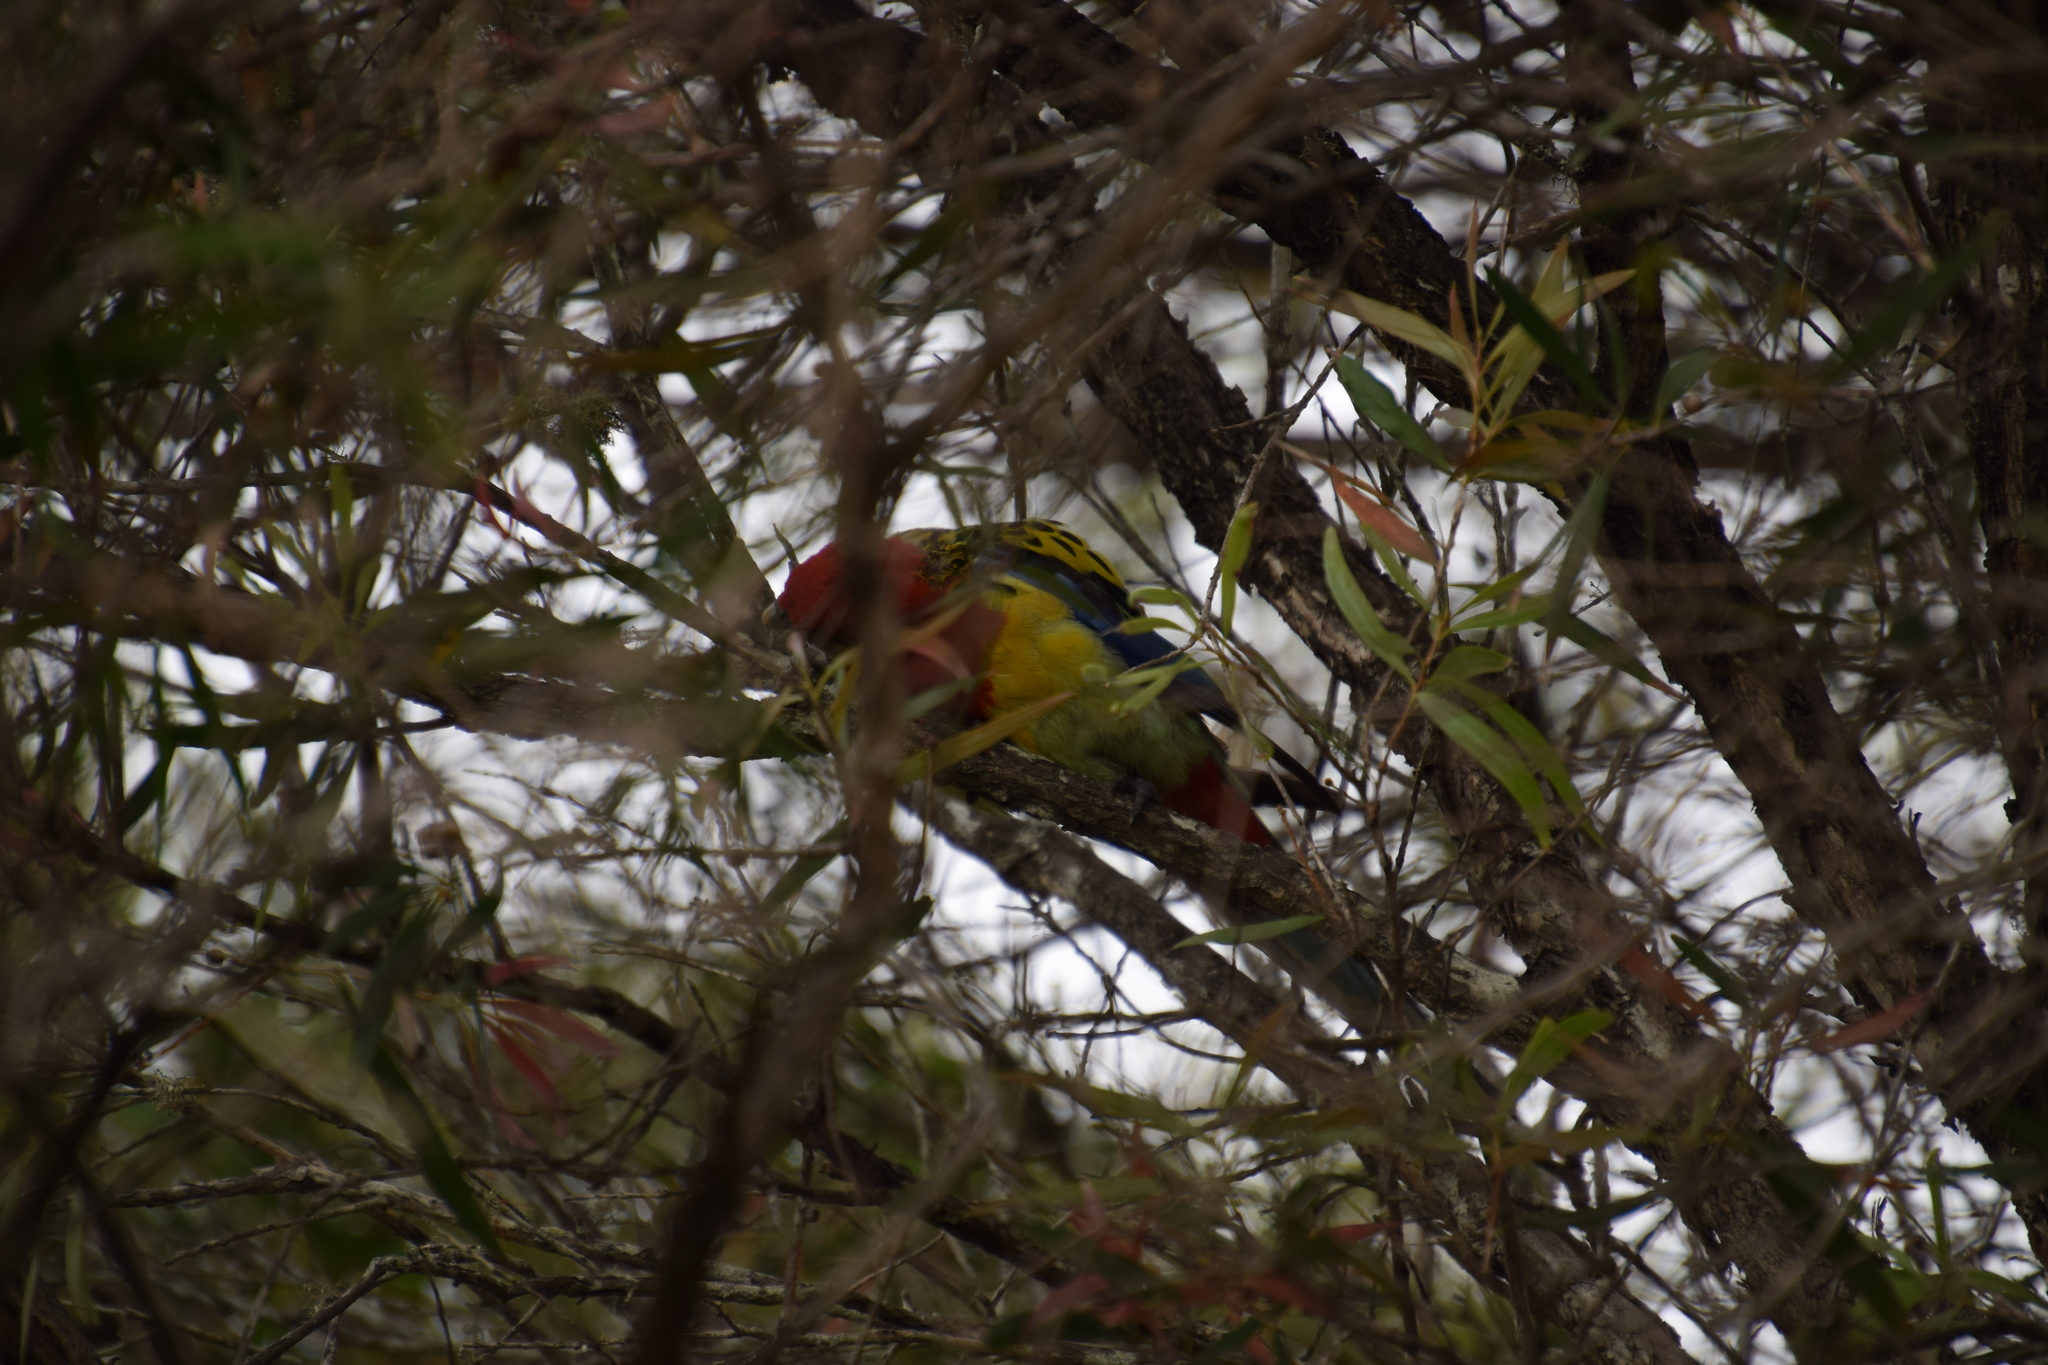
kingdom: Animalia
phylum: Chordata
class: Aves
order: Psittaciformes
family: Psittacidae
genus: Platycercus
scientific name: Platycercus eximius
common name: Eastern rosella
